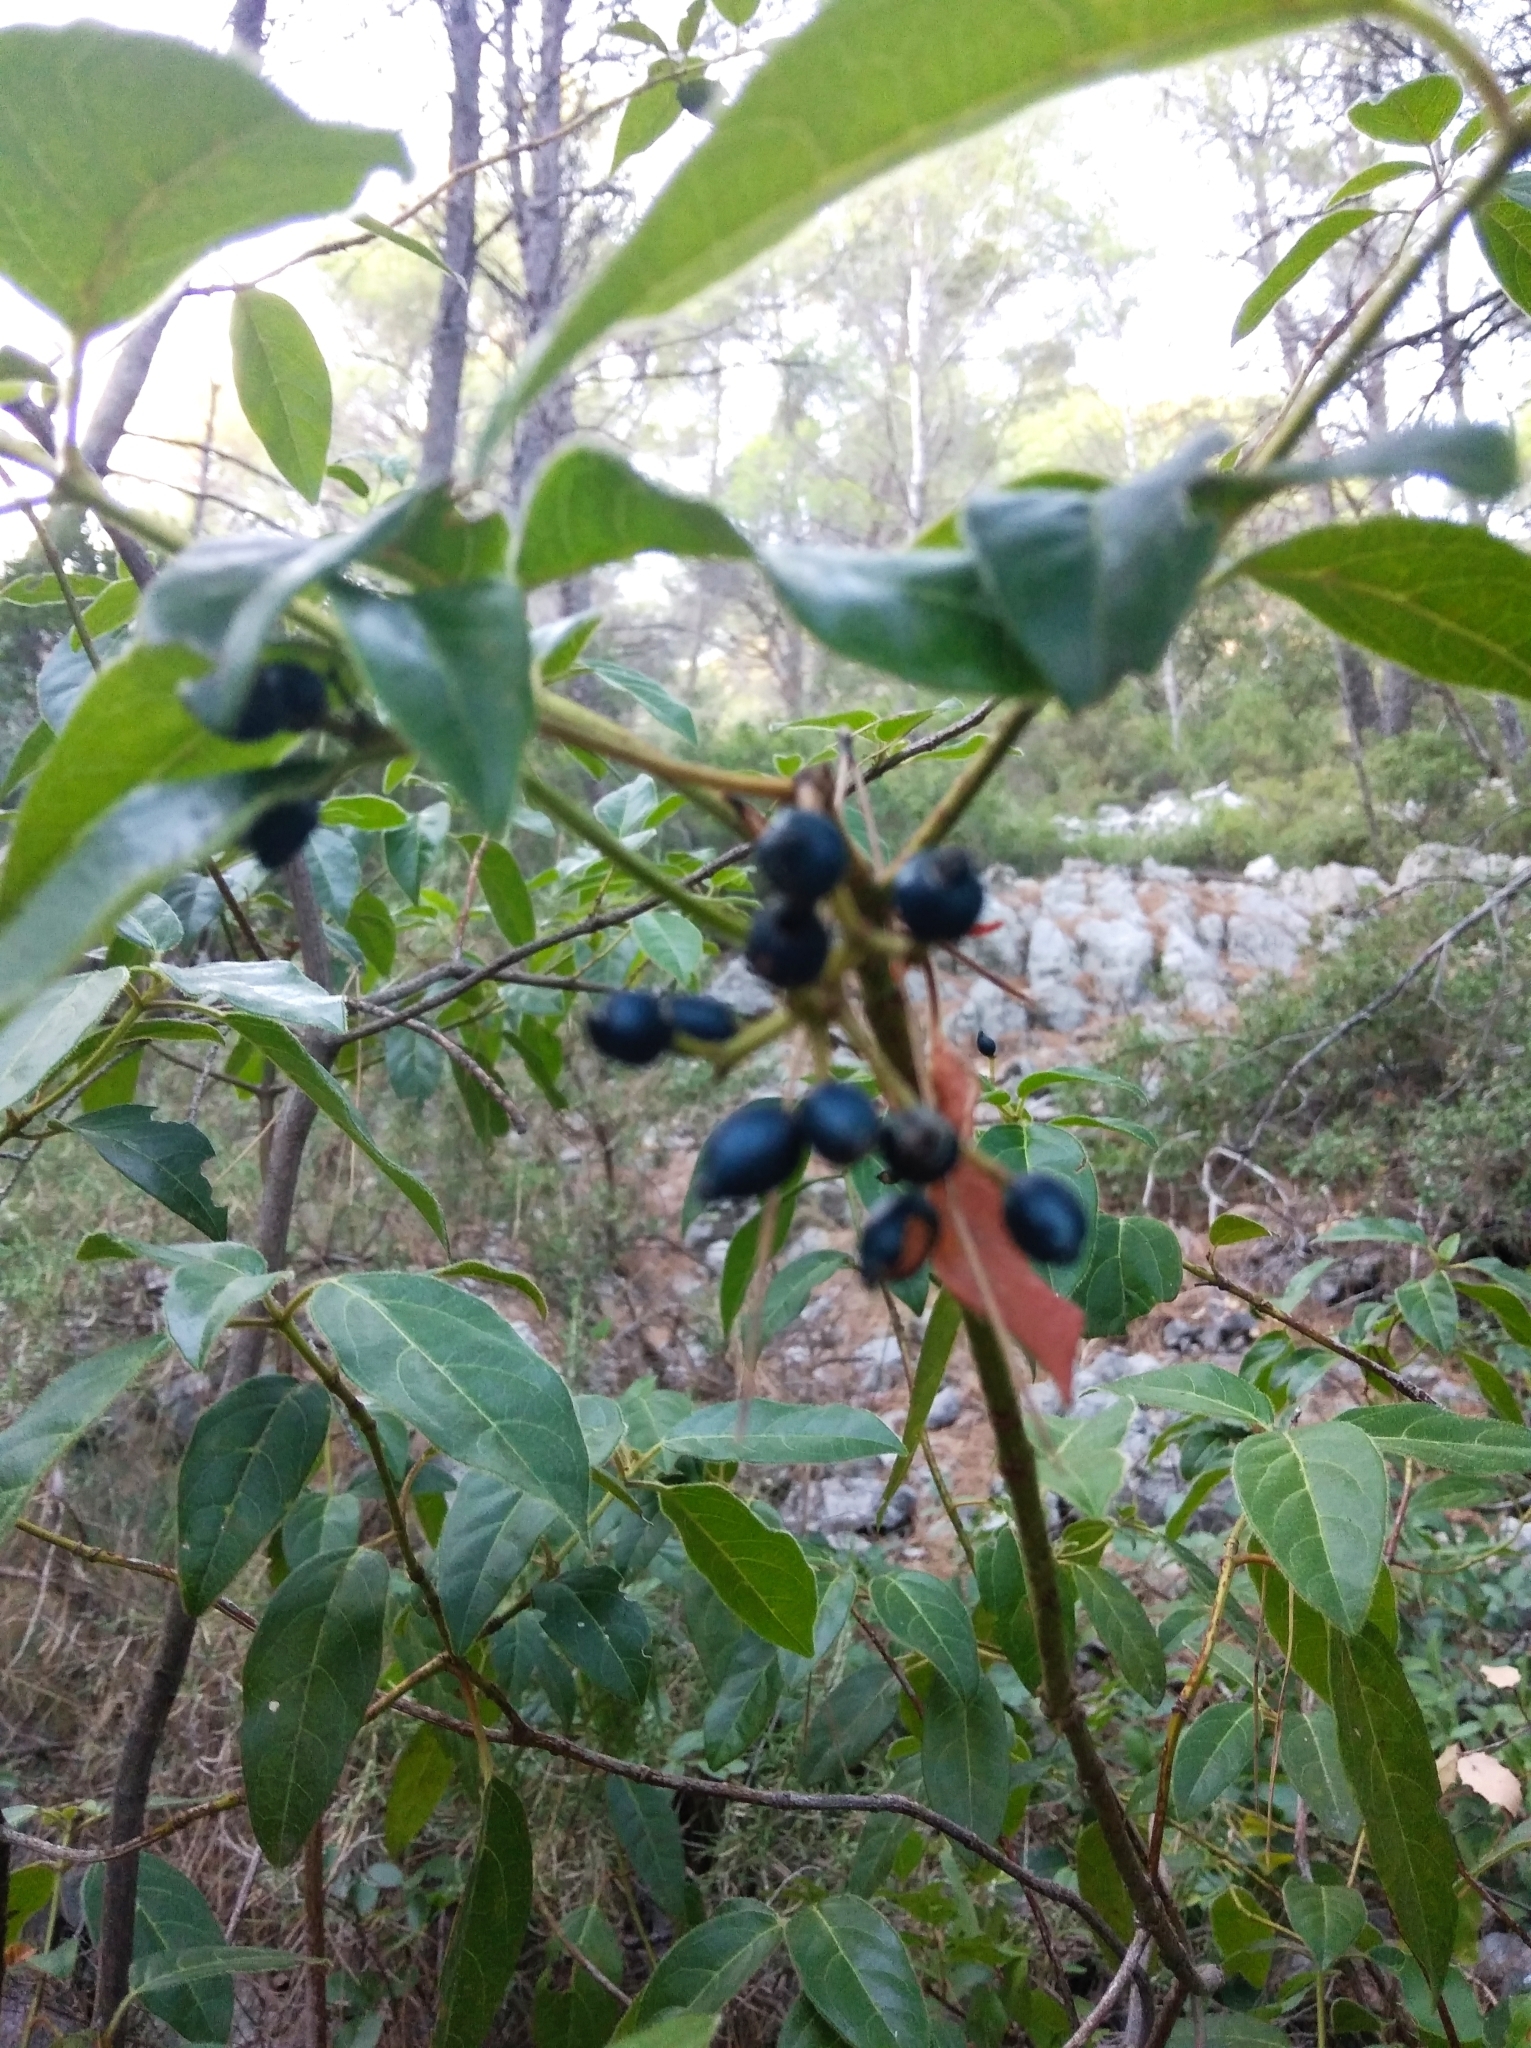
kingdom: Plantae
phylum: Tracheophyta
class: Magnoliopsida
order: Dipsacales
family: Viburnaceae
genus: Viburnum
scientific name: Viburnum tinus
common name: Laurustinus
